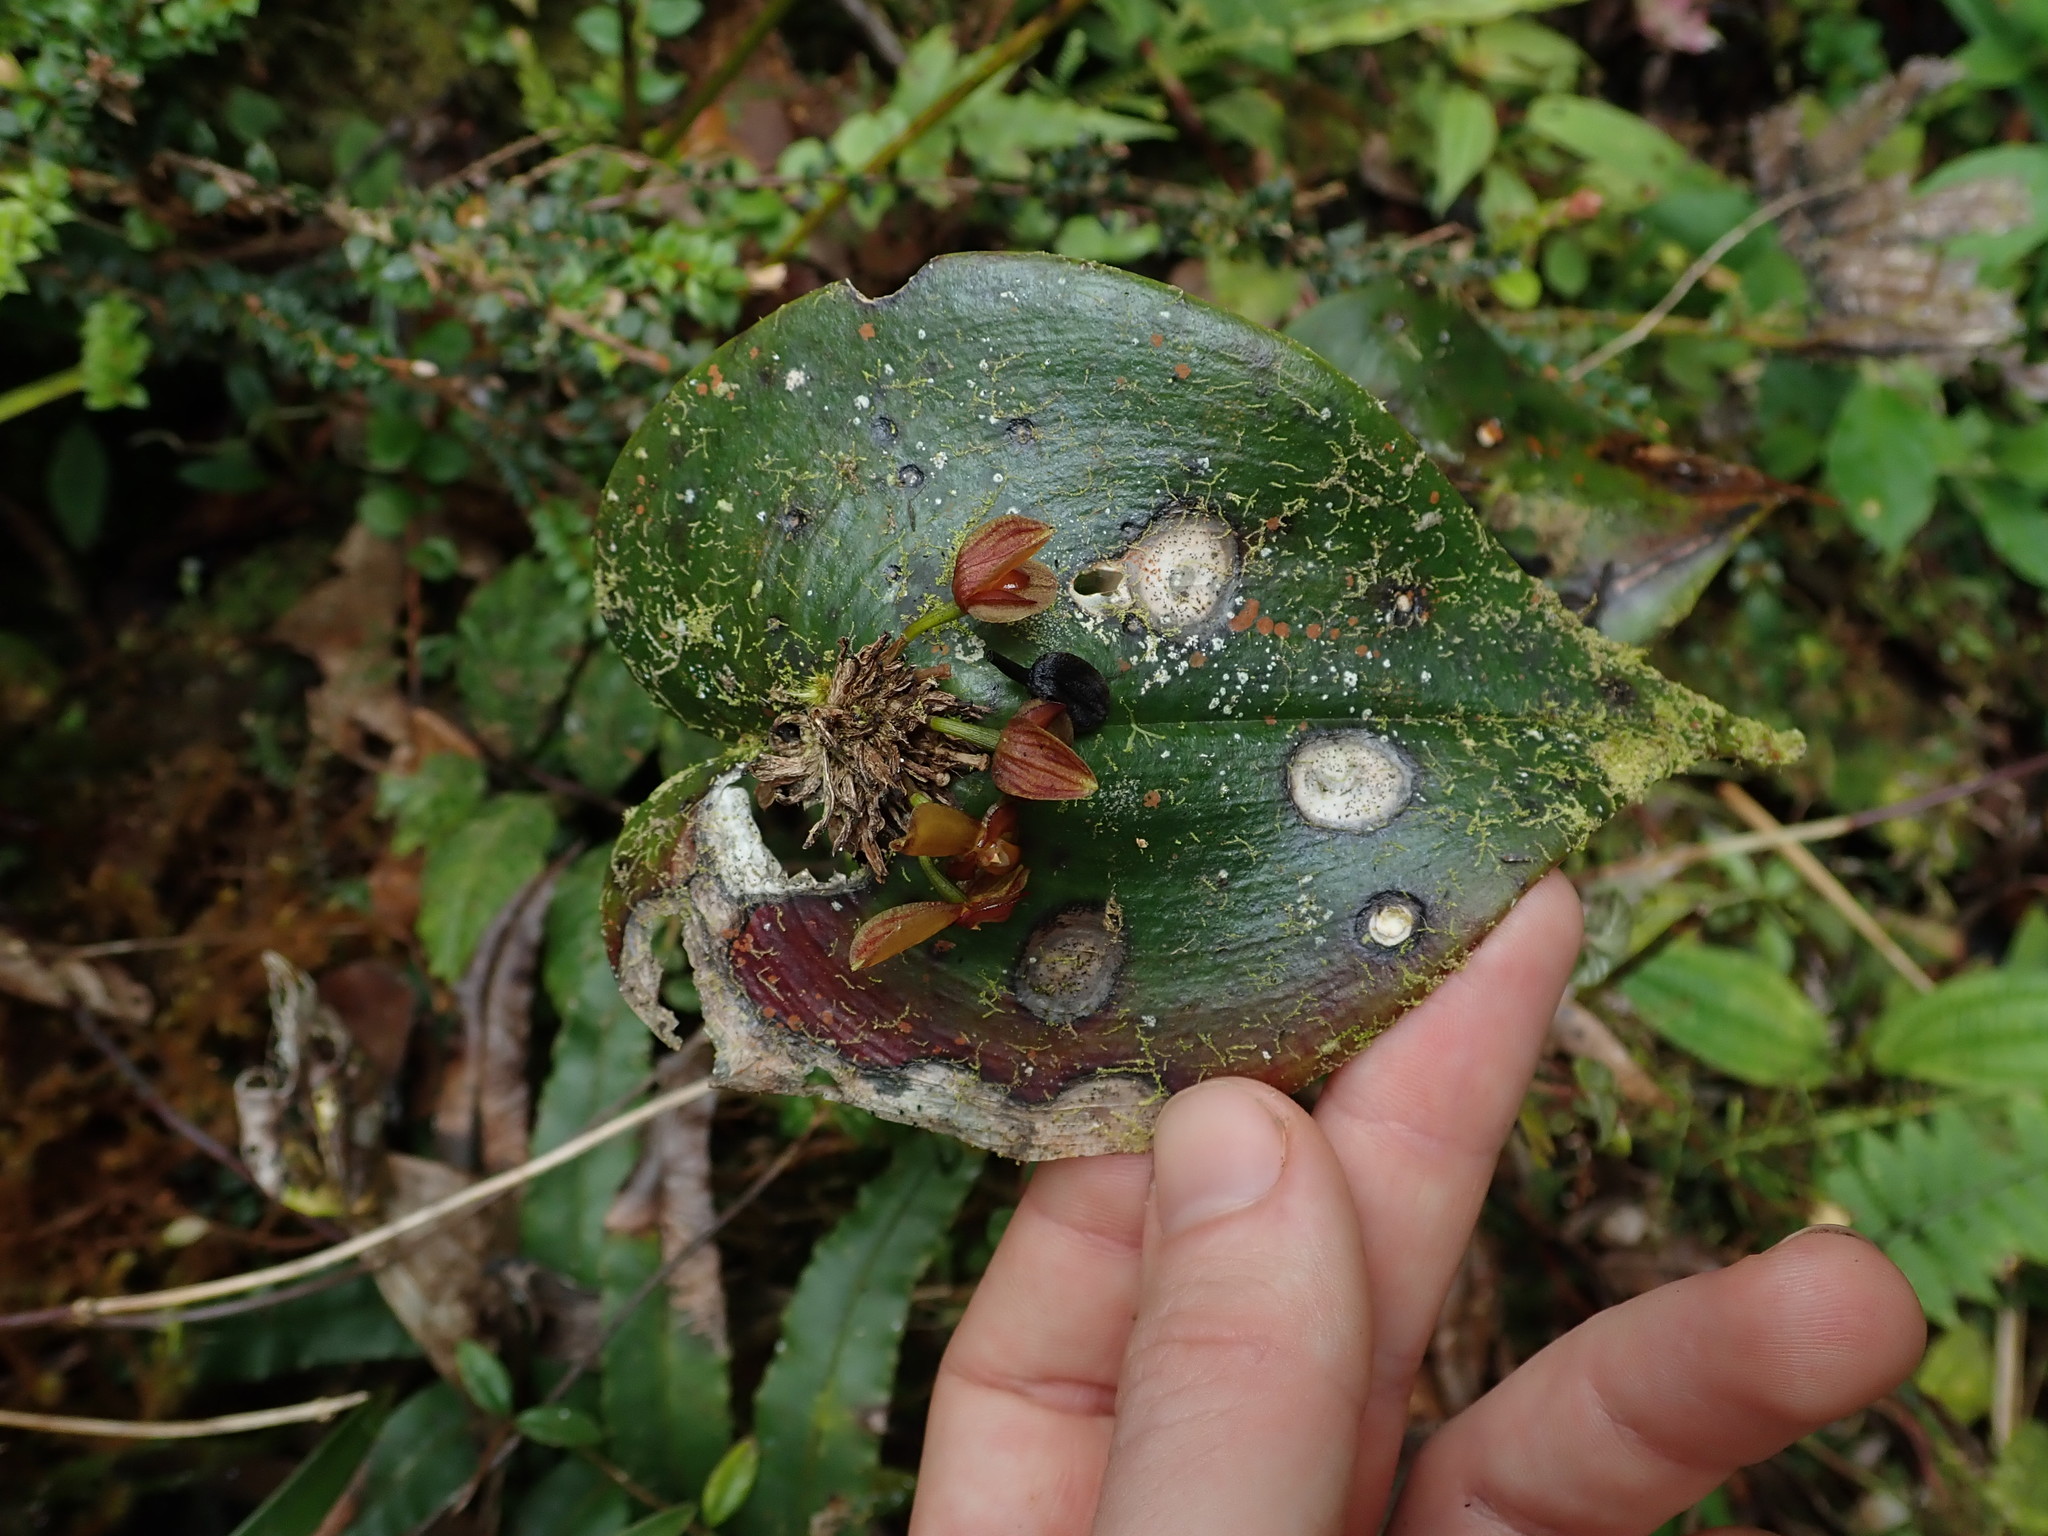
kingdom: Plantae
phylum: Tracheophyta
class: Liliopsida
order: Asparagales
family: Orchidaceae
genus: Pleurothallis
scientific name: Pleurothallis cordata
